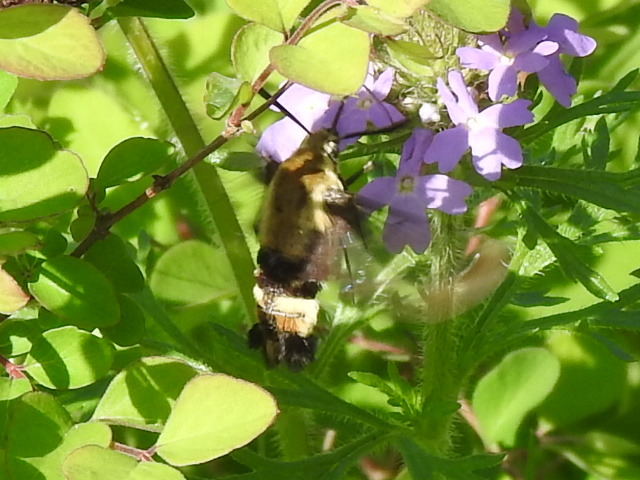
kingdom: Animalia
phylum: Arthropoda
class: Insecta
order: Lepidoptera
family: Sphingidae
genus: Hemaris
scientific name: Hemaris diffinis
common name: Bumblebee moth
